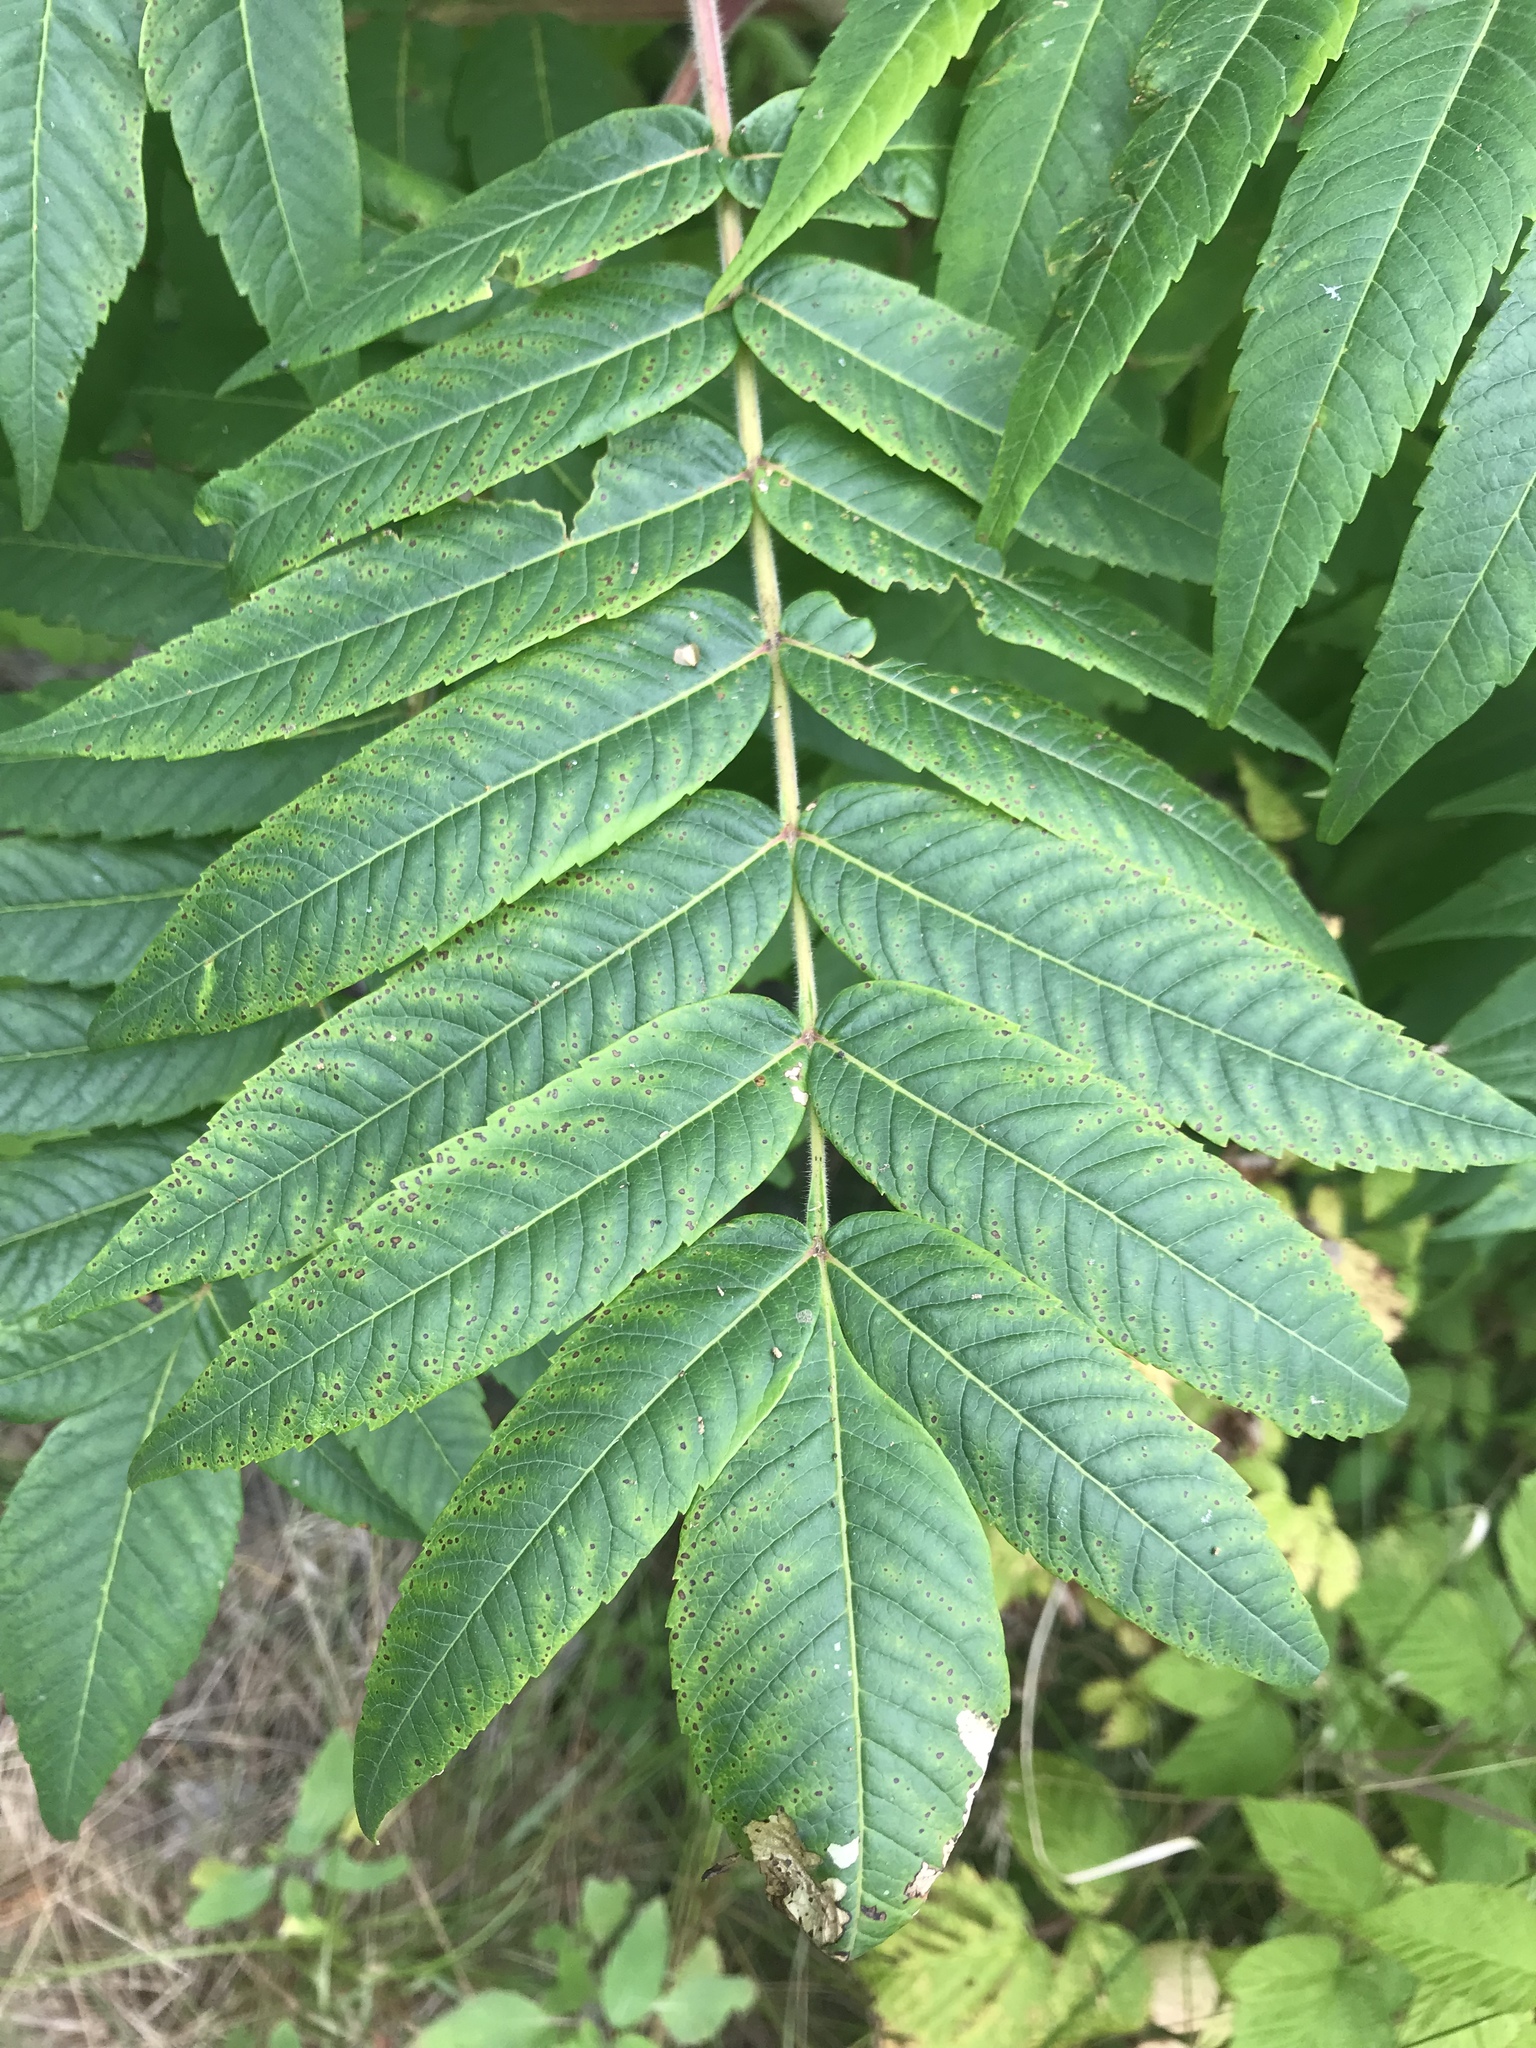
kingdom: Plantae
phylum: Tracheophyta
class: Magnoliopsida
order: Sapindales
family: Anacardiaceae
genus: Rhus
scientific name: Rhus typhina
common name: Staghorn sumac
